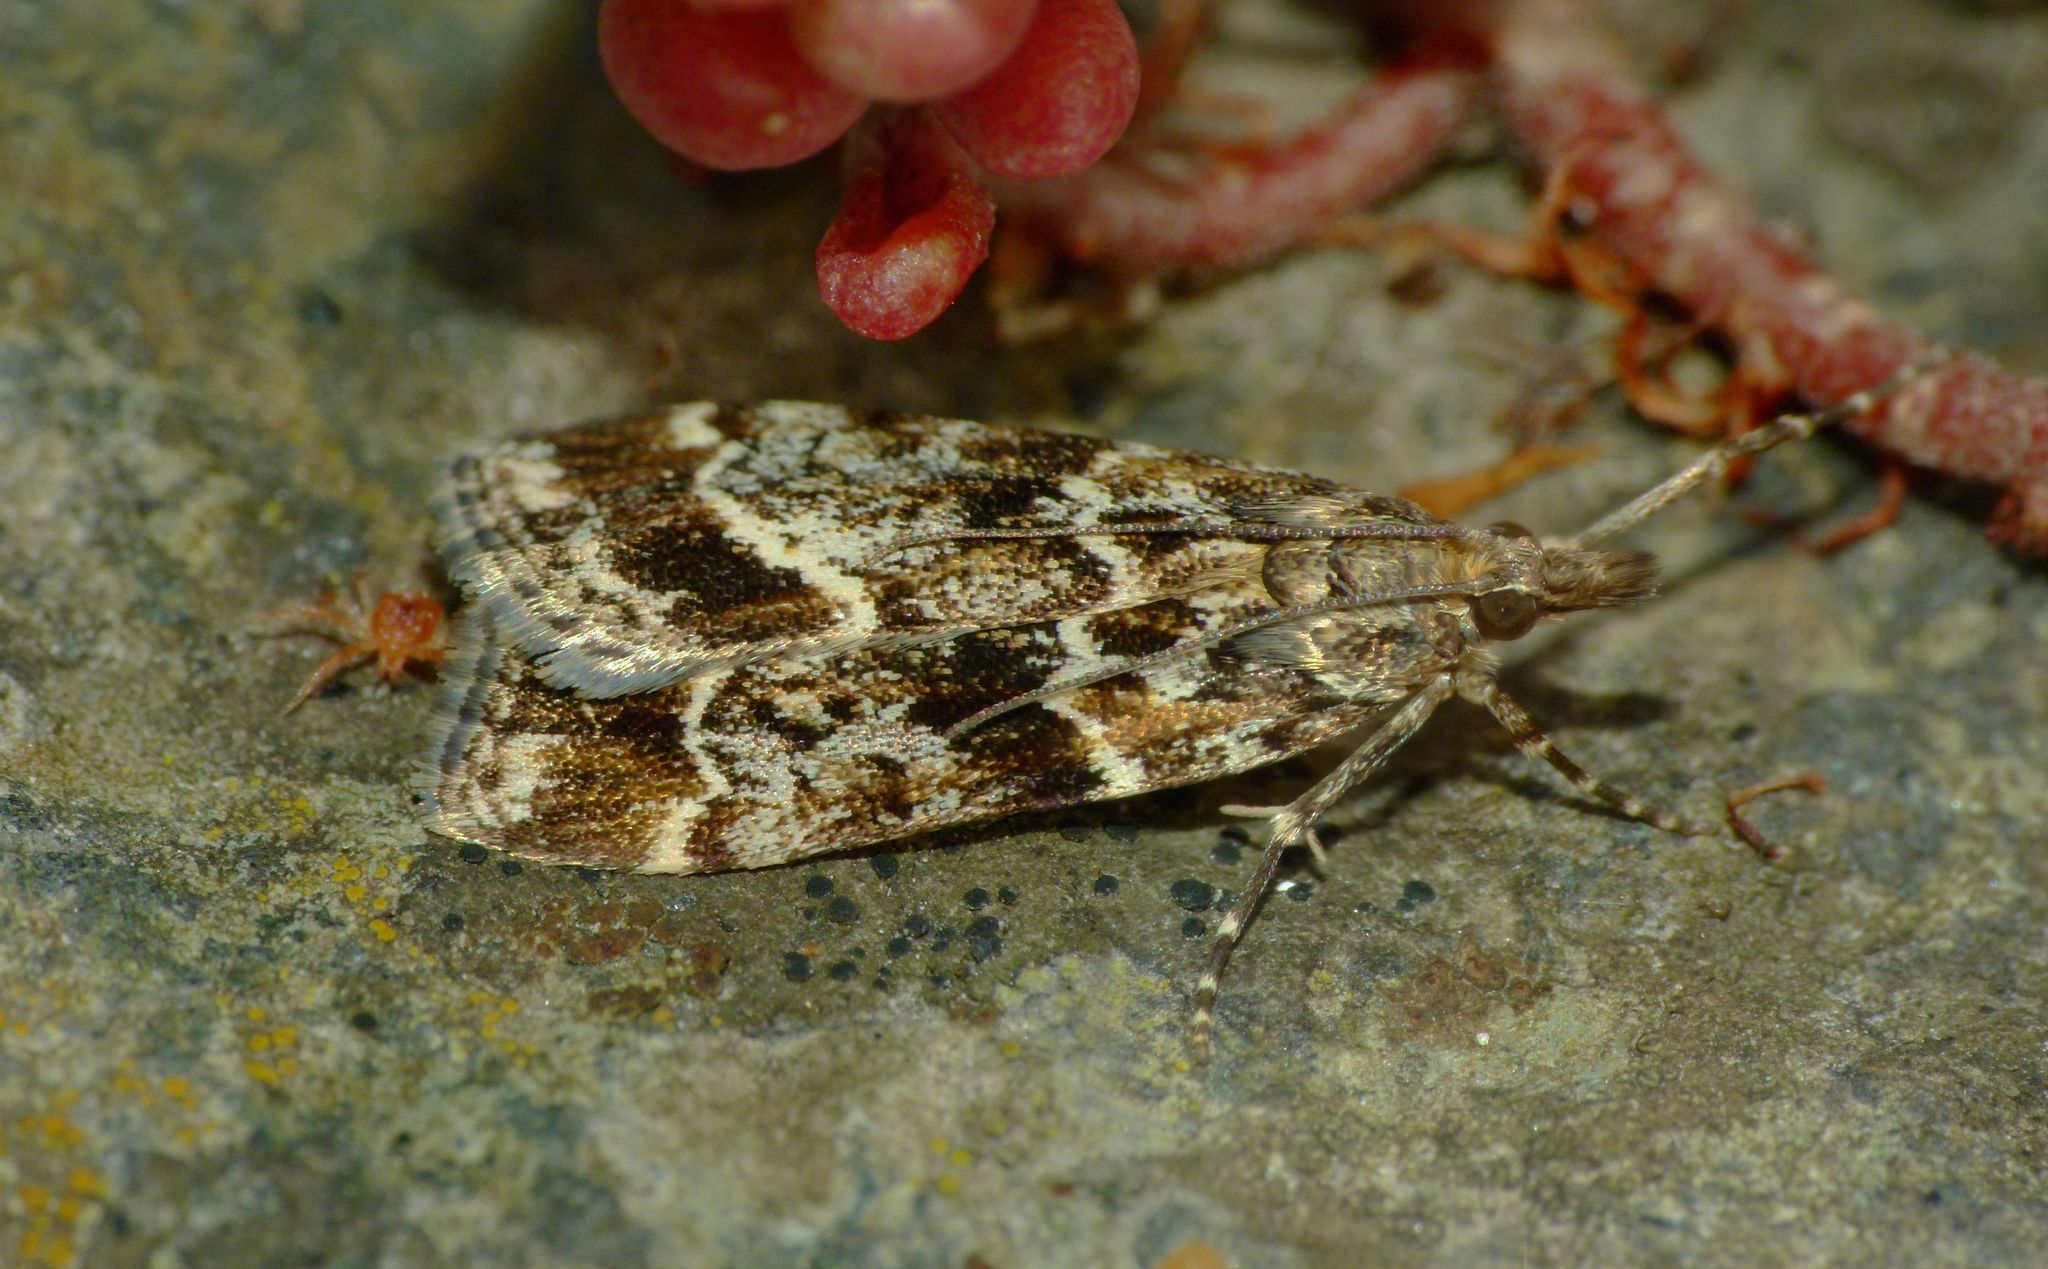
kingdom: Animalia
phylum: Arthropoda
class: Insecta
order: Lepidoptera
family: Crambidae
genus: Eudonia
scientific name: Eudonia legnota
